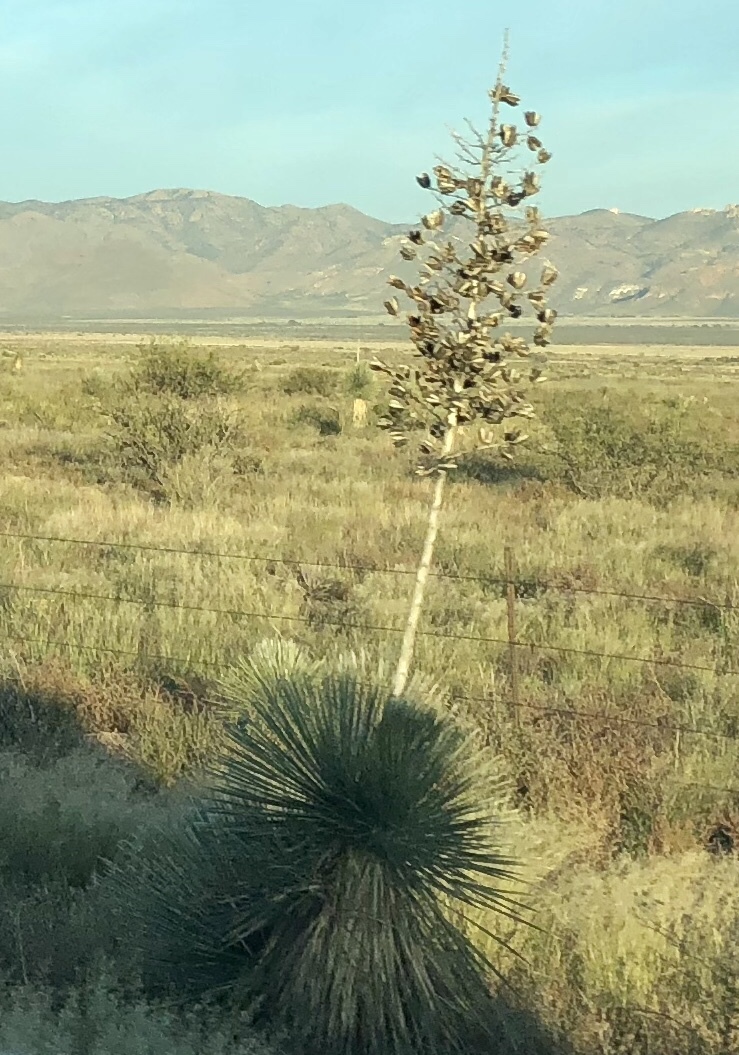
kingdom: Plantae
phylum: Tracheophyta
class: Liliopsida
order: Asparagales
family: Asparagaceae
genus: Yucca
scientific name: Yucca elata
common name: Palmella
